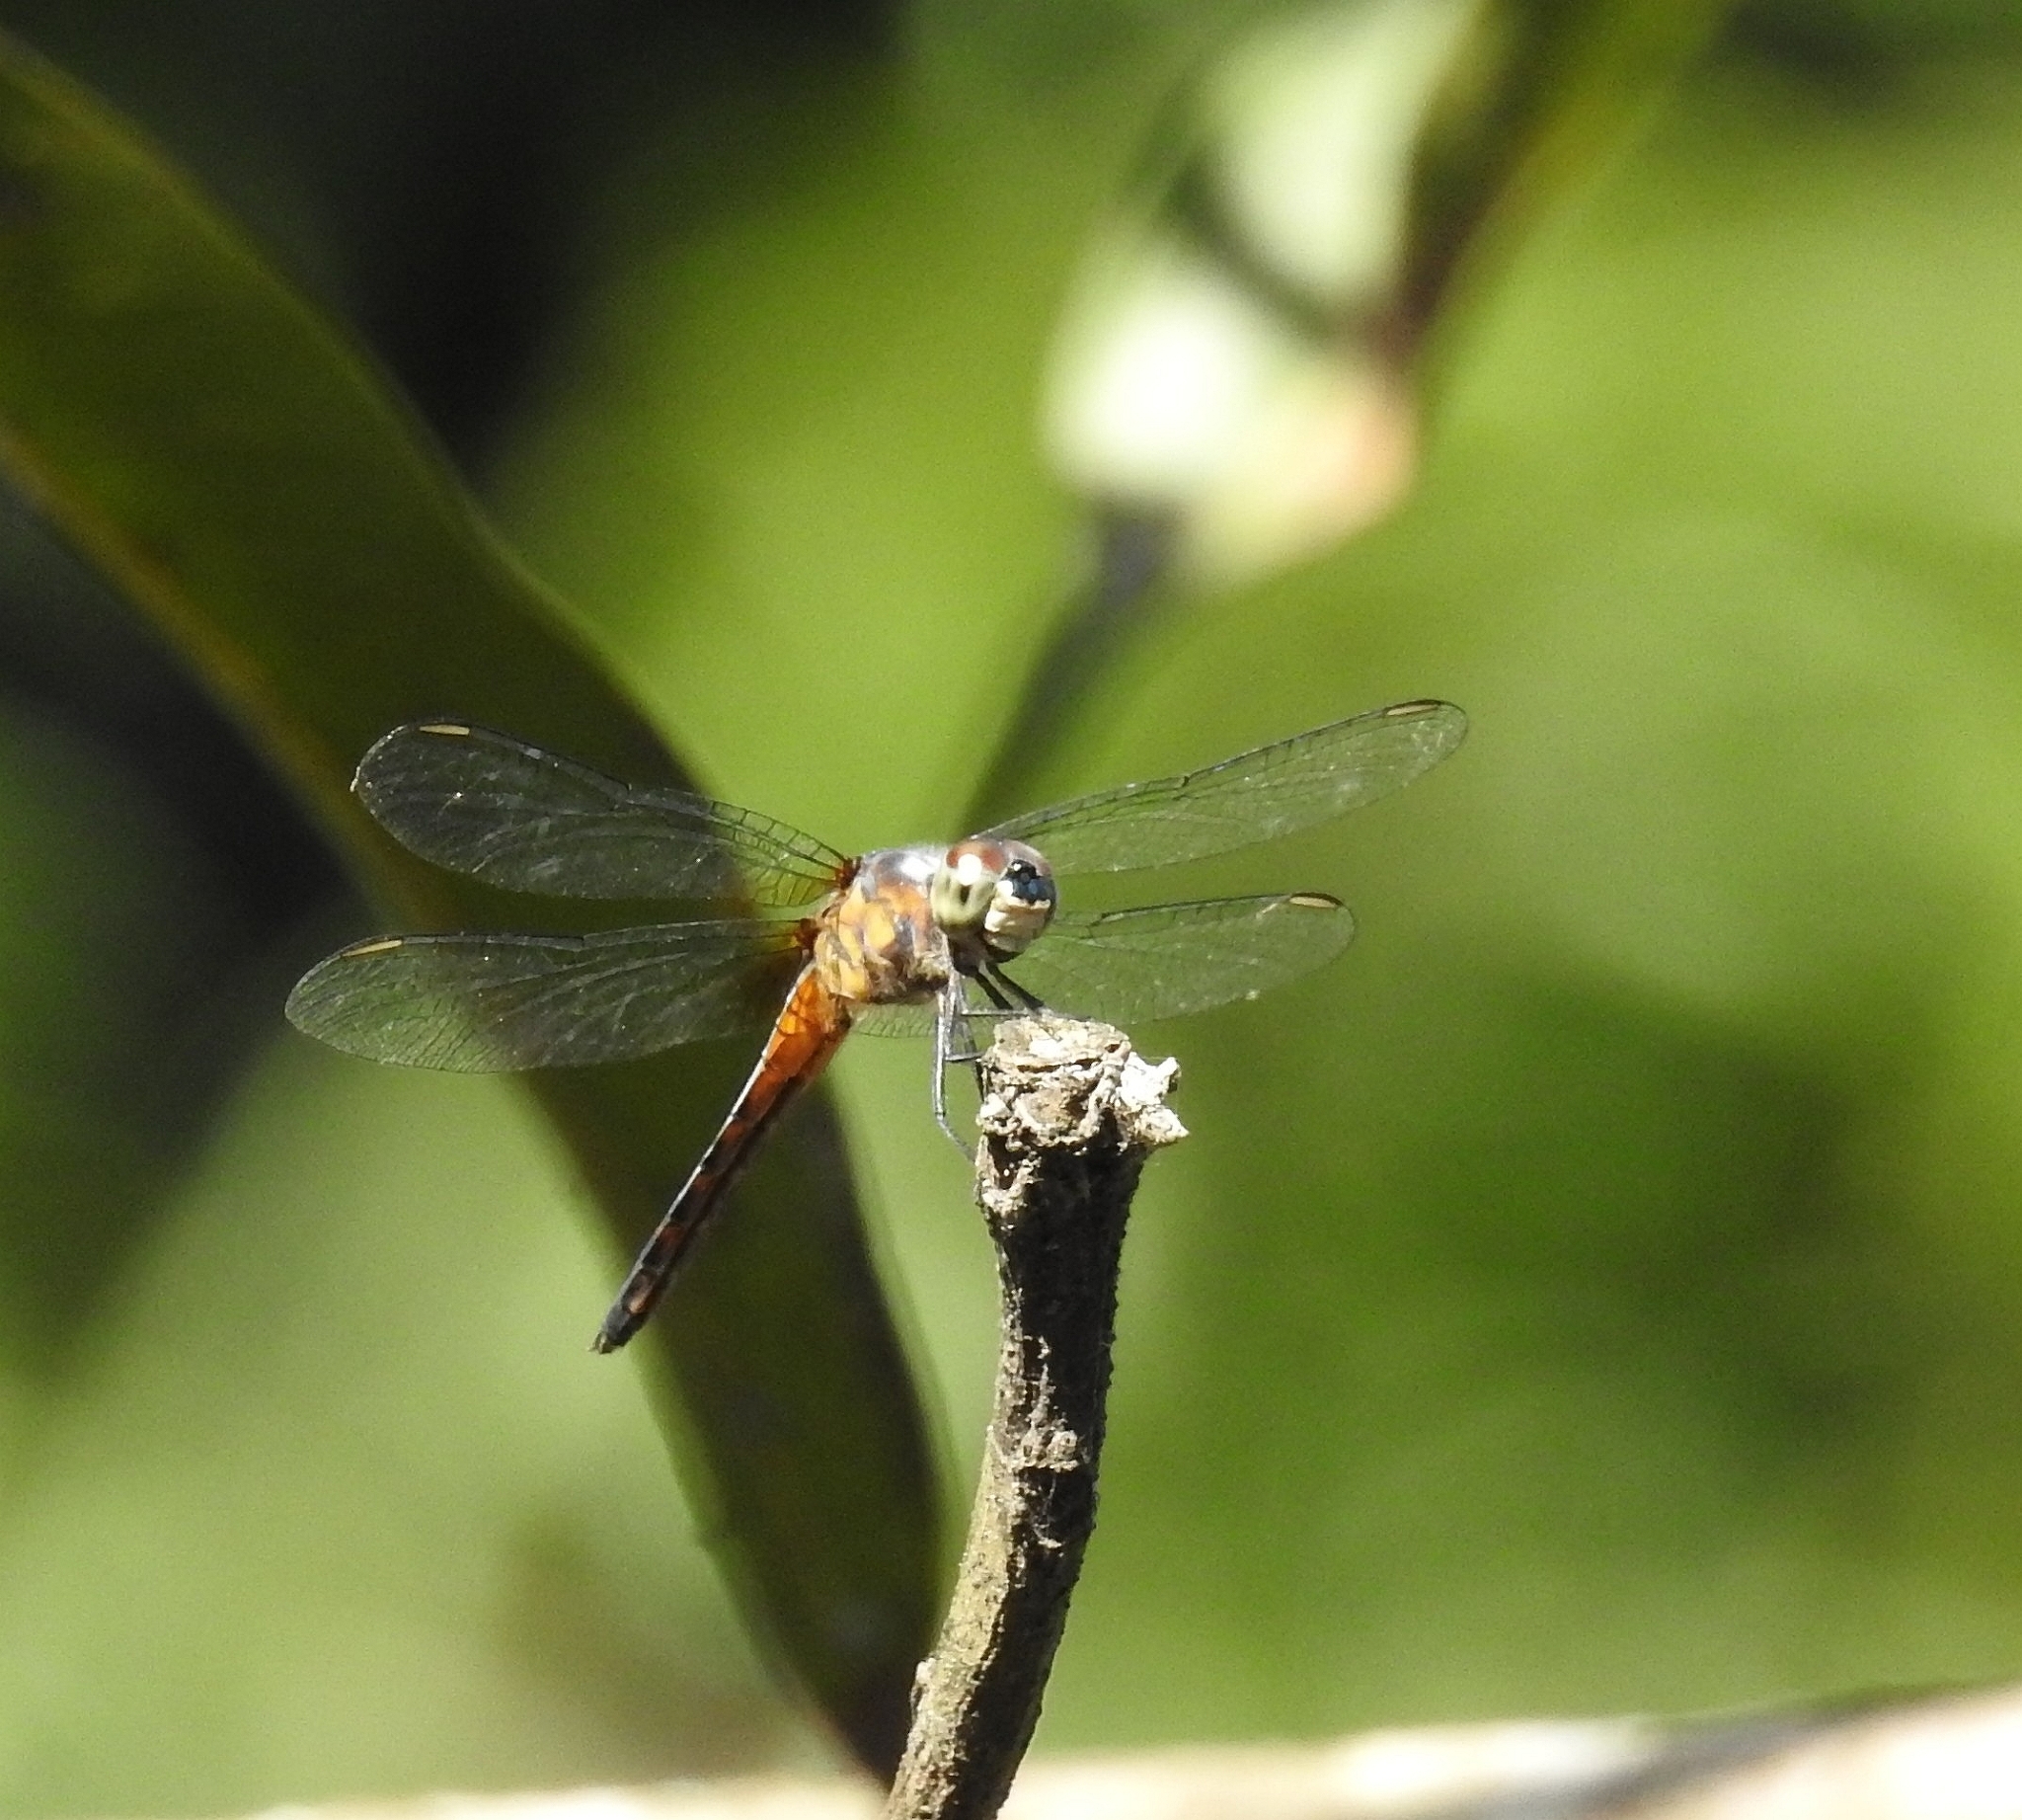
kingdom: Animalia
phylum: Arthropoda
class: Insecta
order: Odonata
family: Libellulidae
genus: Brachydiplax
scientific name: Brachydiplax chalybea
